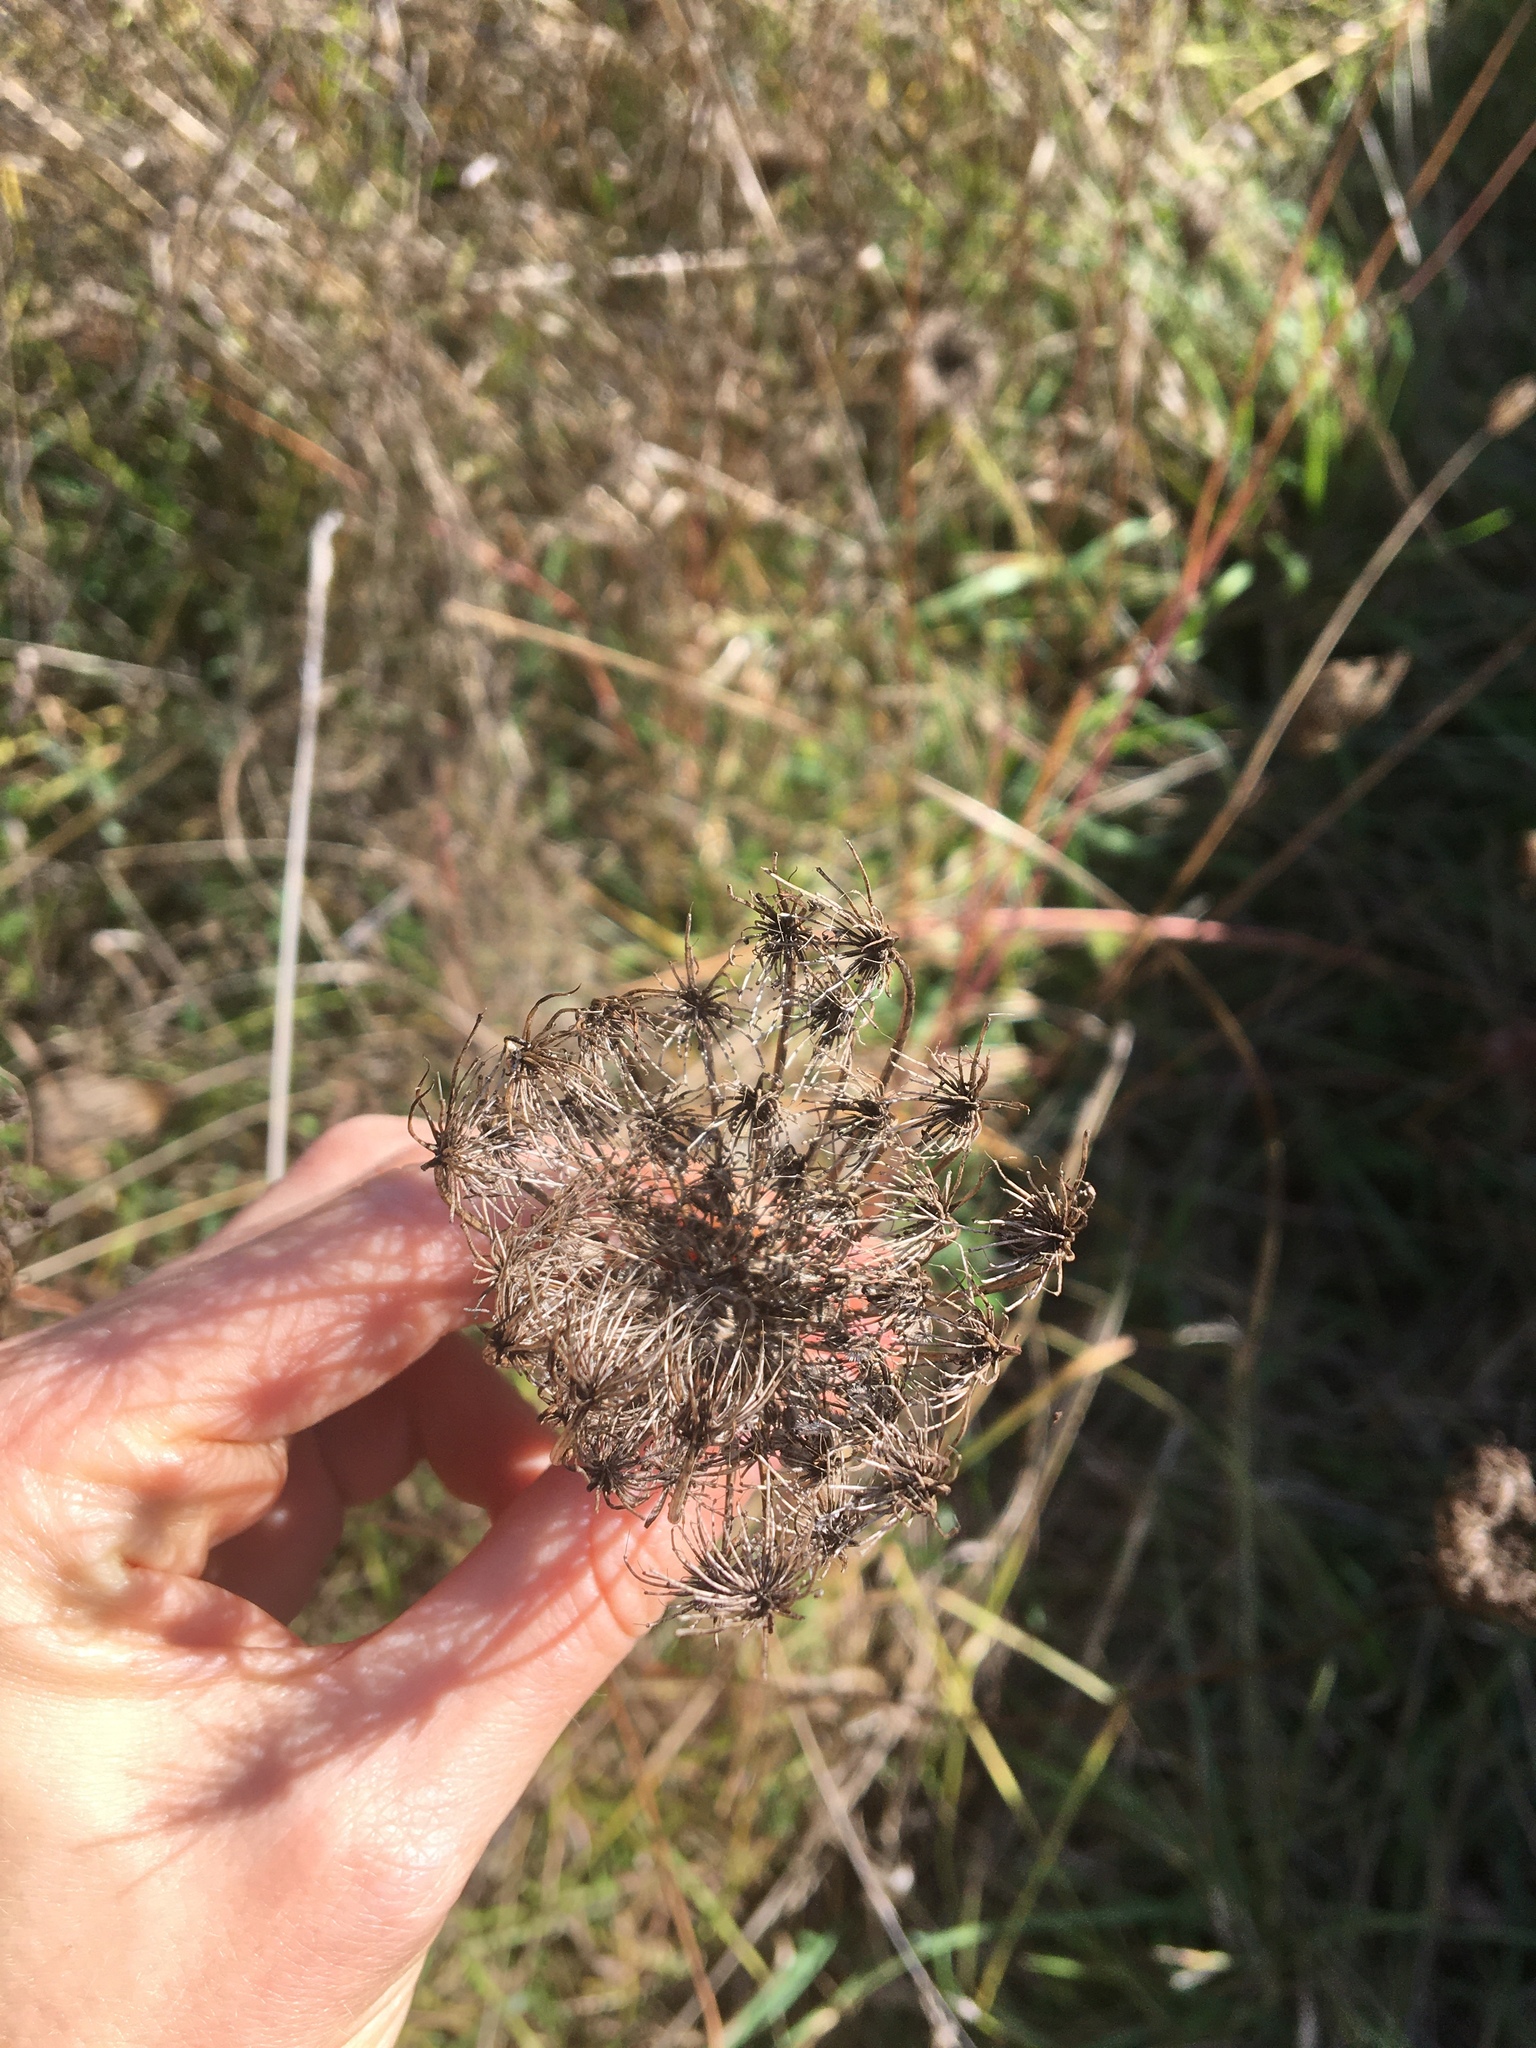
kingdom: Plantae
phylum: Tracheophyta
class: Magnoliopsida
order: Apiales
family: Apiaceae
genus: Daucus
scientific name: Daucus carota
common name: Wild carrot
